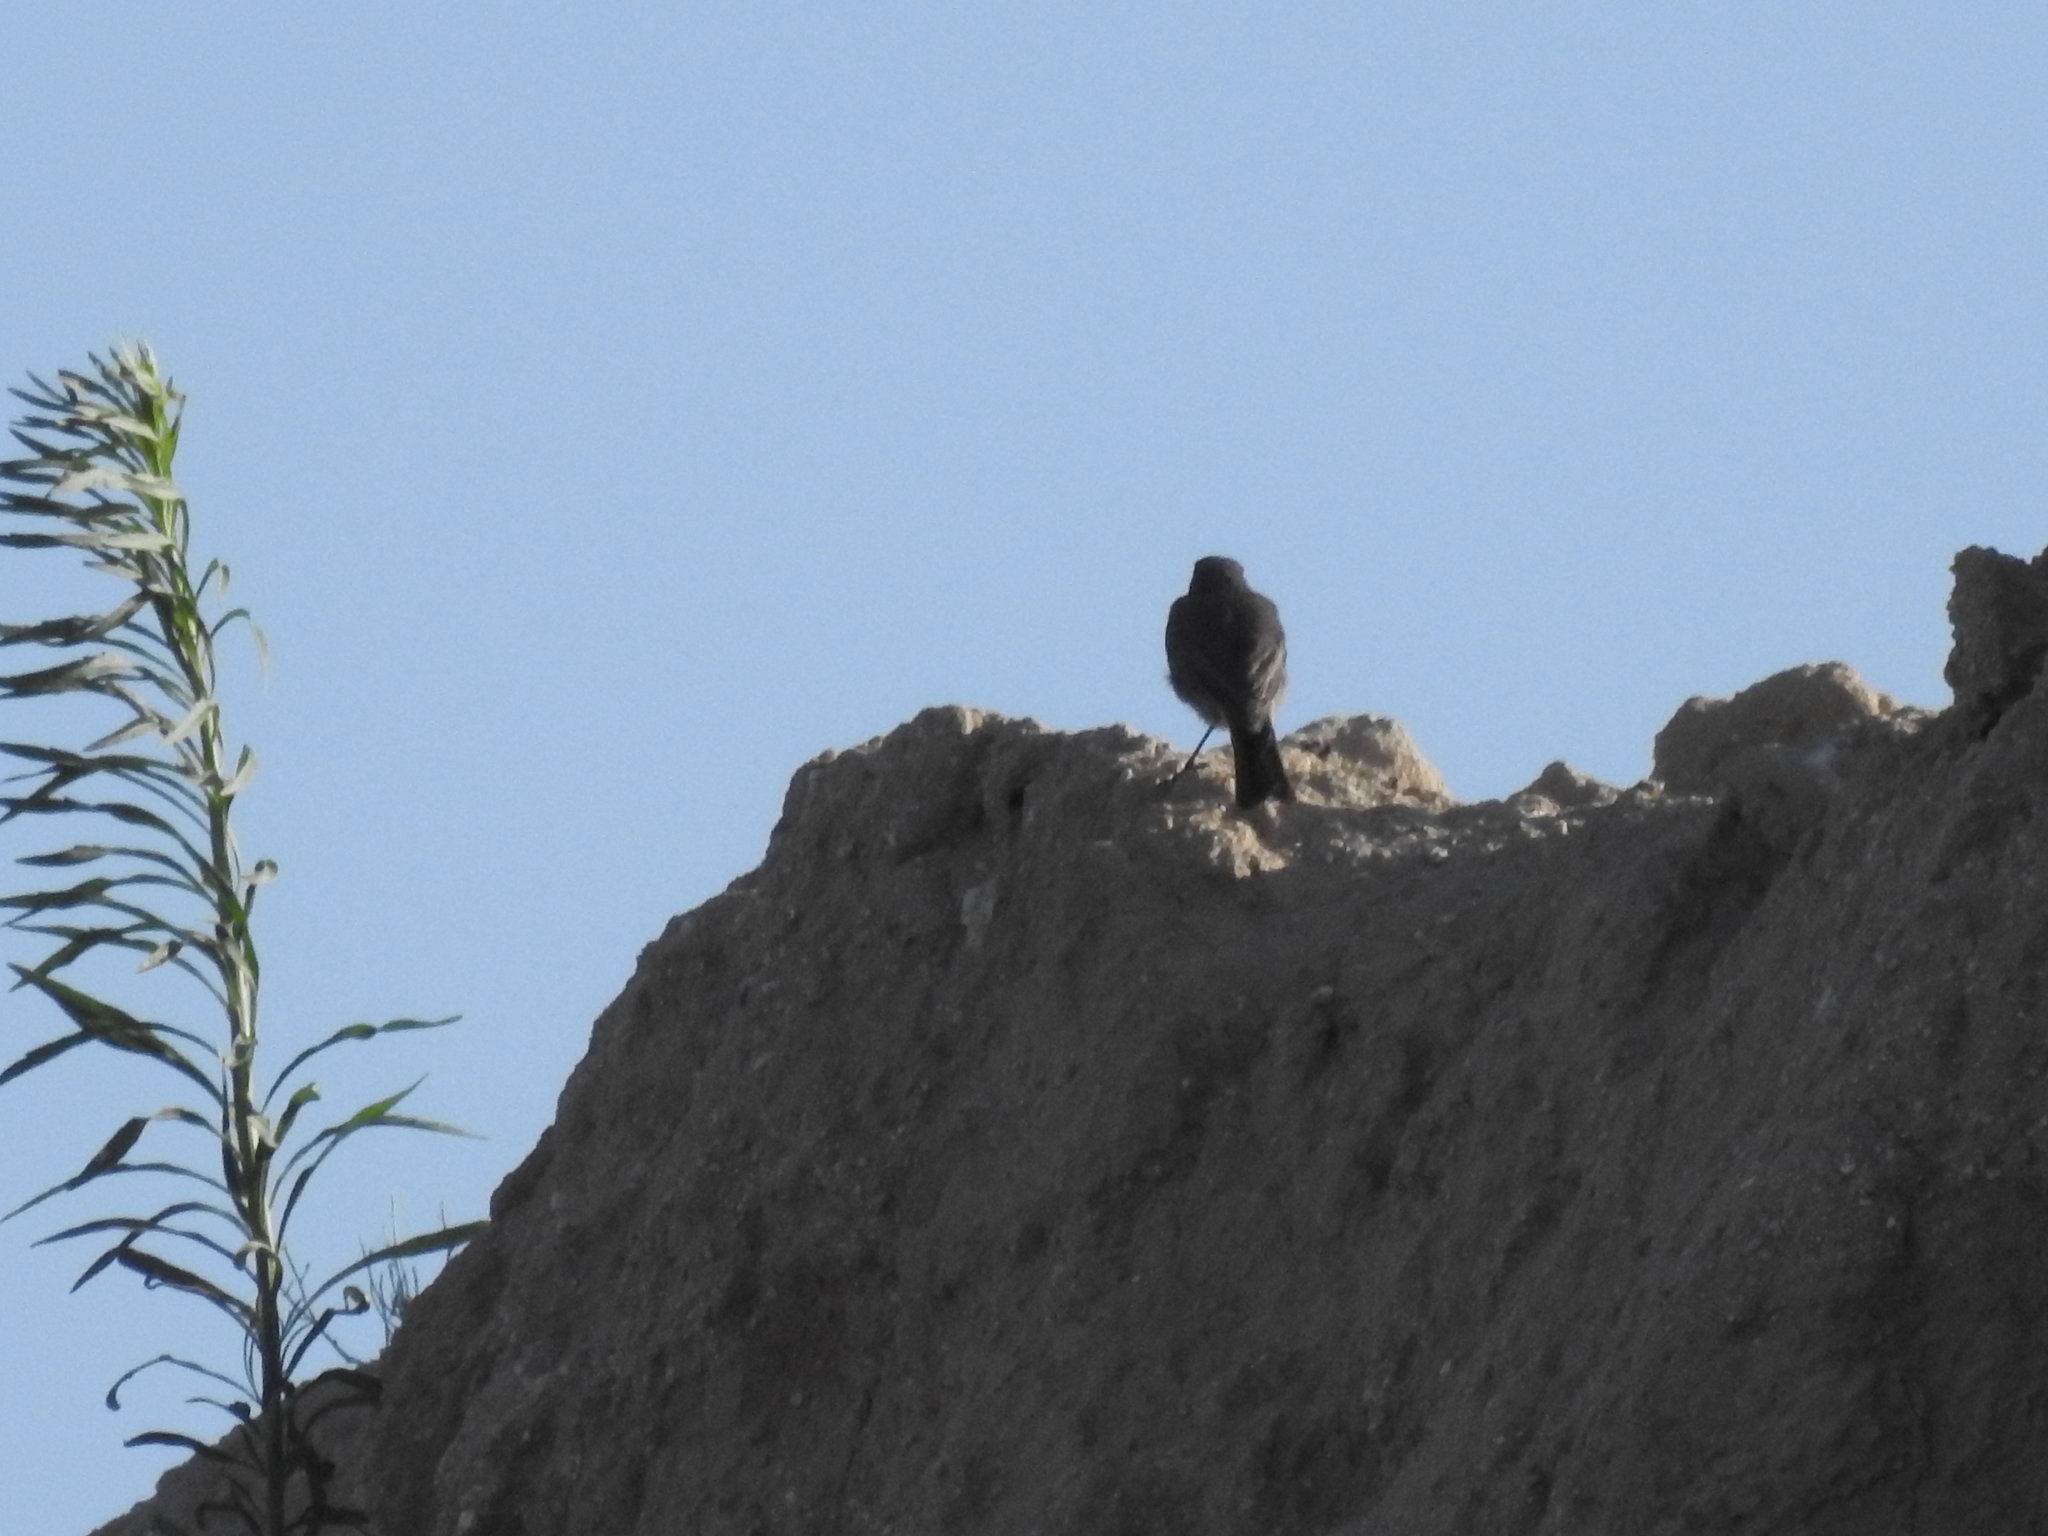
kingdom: Animalia
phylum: Chordata
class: Aves
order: Passeriformes
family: Muscicapidae
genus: Phoenicurus
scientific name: Phoenicurus ochruros
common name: Black redstart
